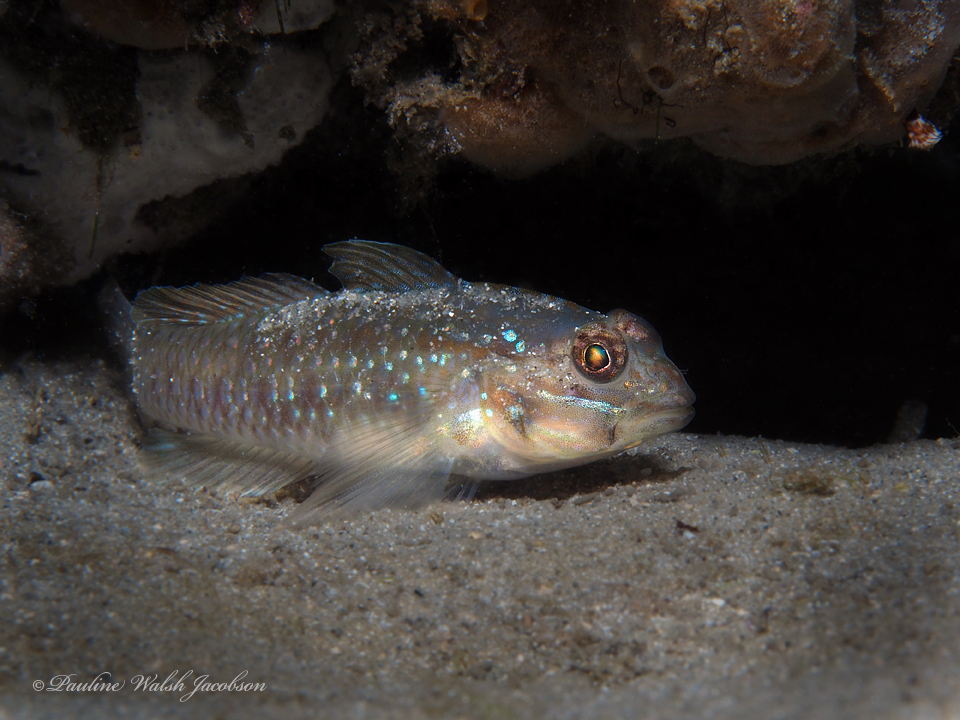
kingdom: Animalia
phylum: Chordata
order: Perciformes
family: Gobiidae
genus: Coryphopterus
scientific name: Coryphopterus glaucofraenum
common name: Bridled goby
